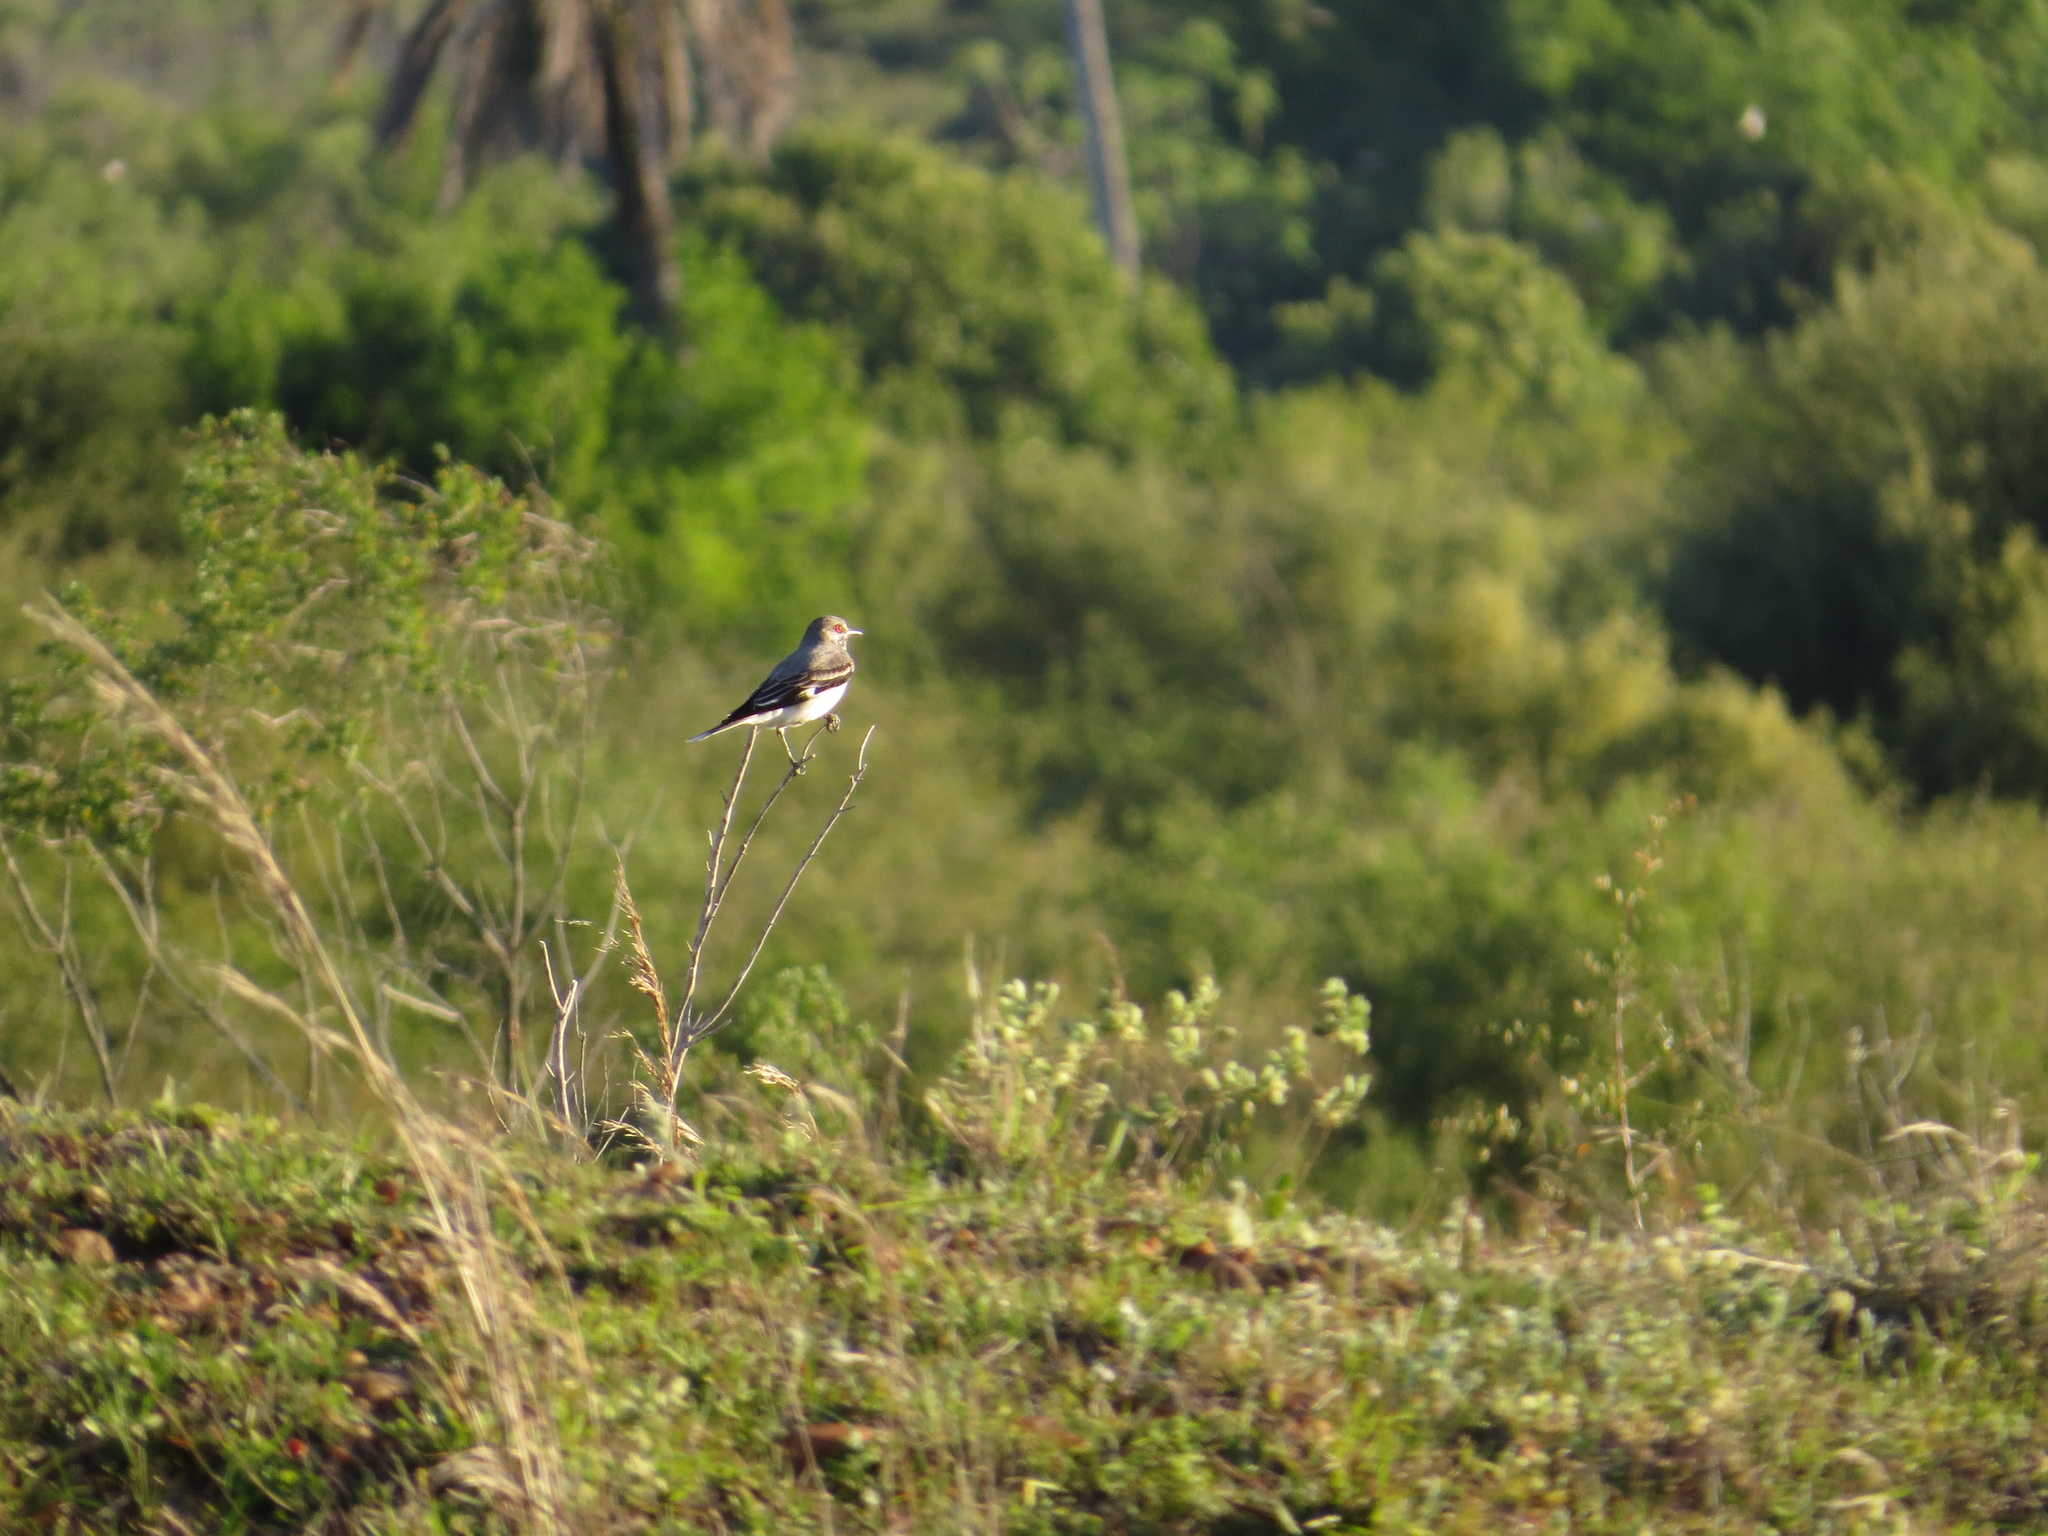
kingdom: Animalia
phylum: Chordata
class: Aves
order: Passeriformes
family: Tyrannidae
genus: Xolmis
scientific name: Xolmis cinereus
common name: Grey monjita
